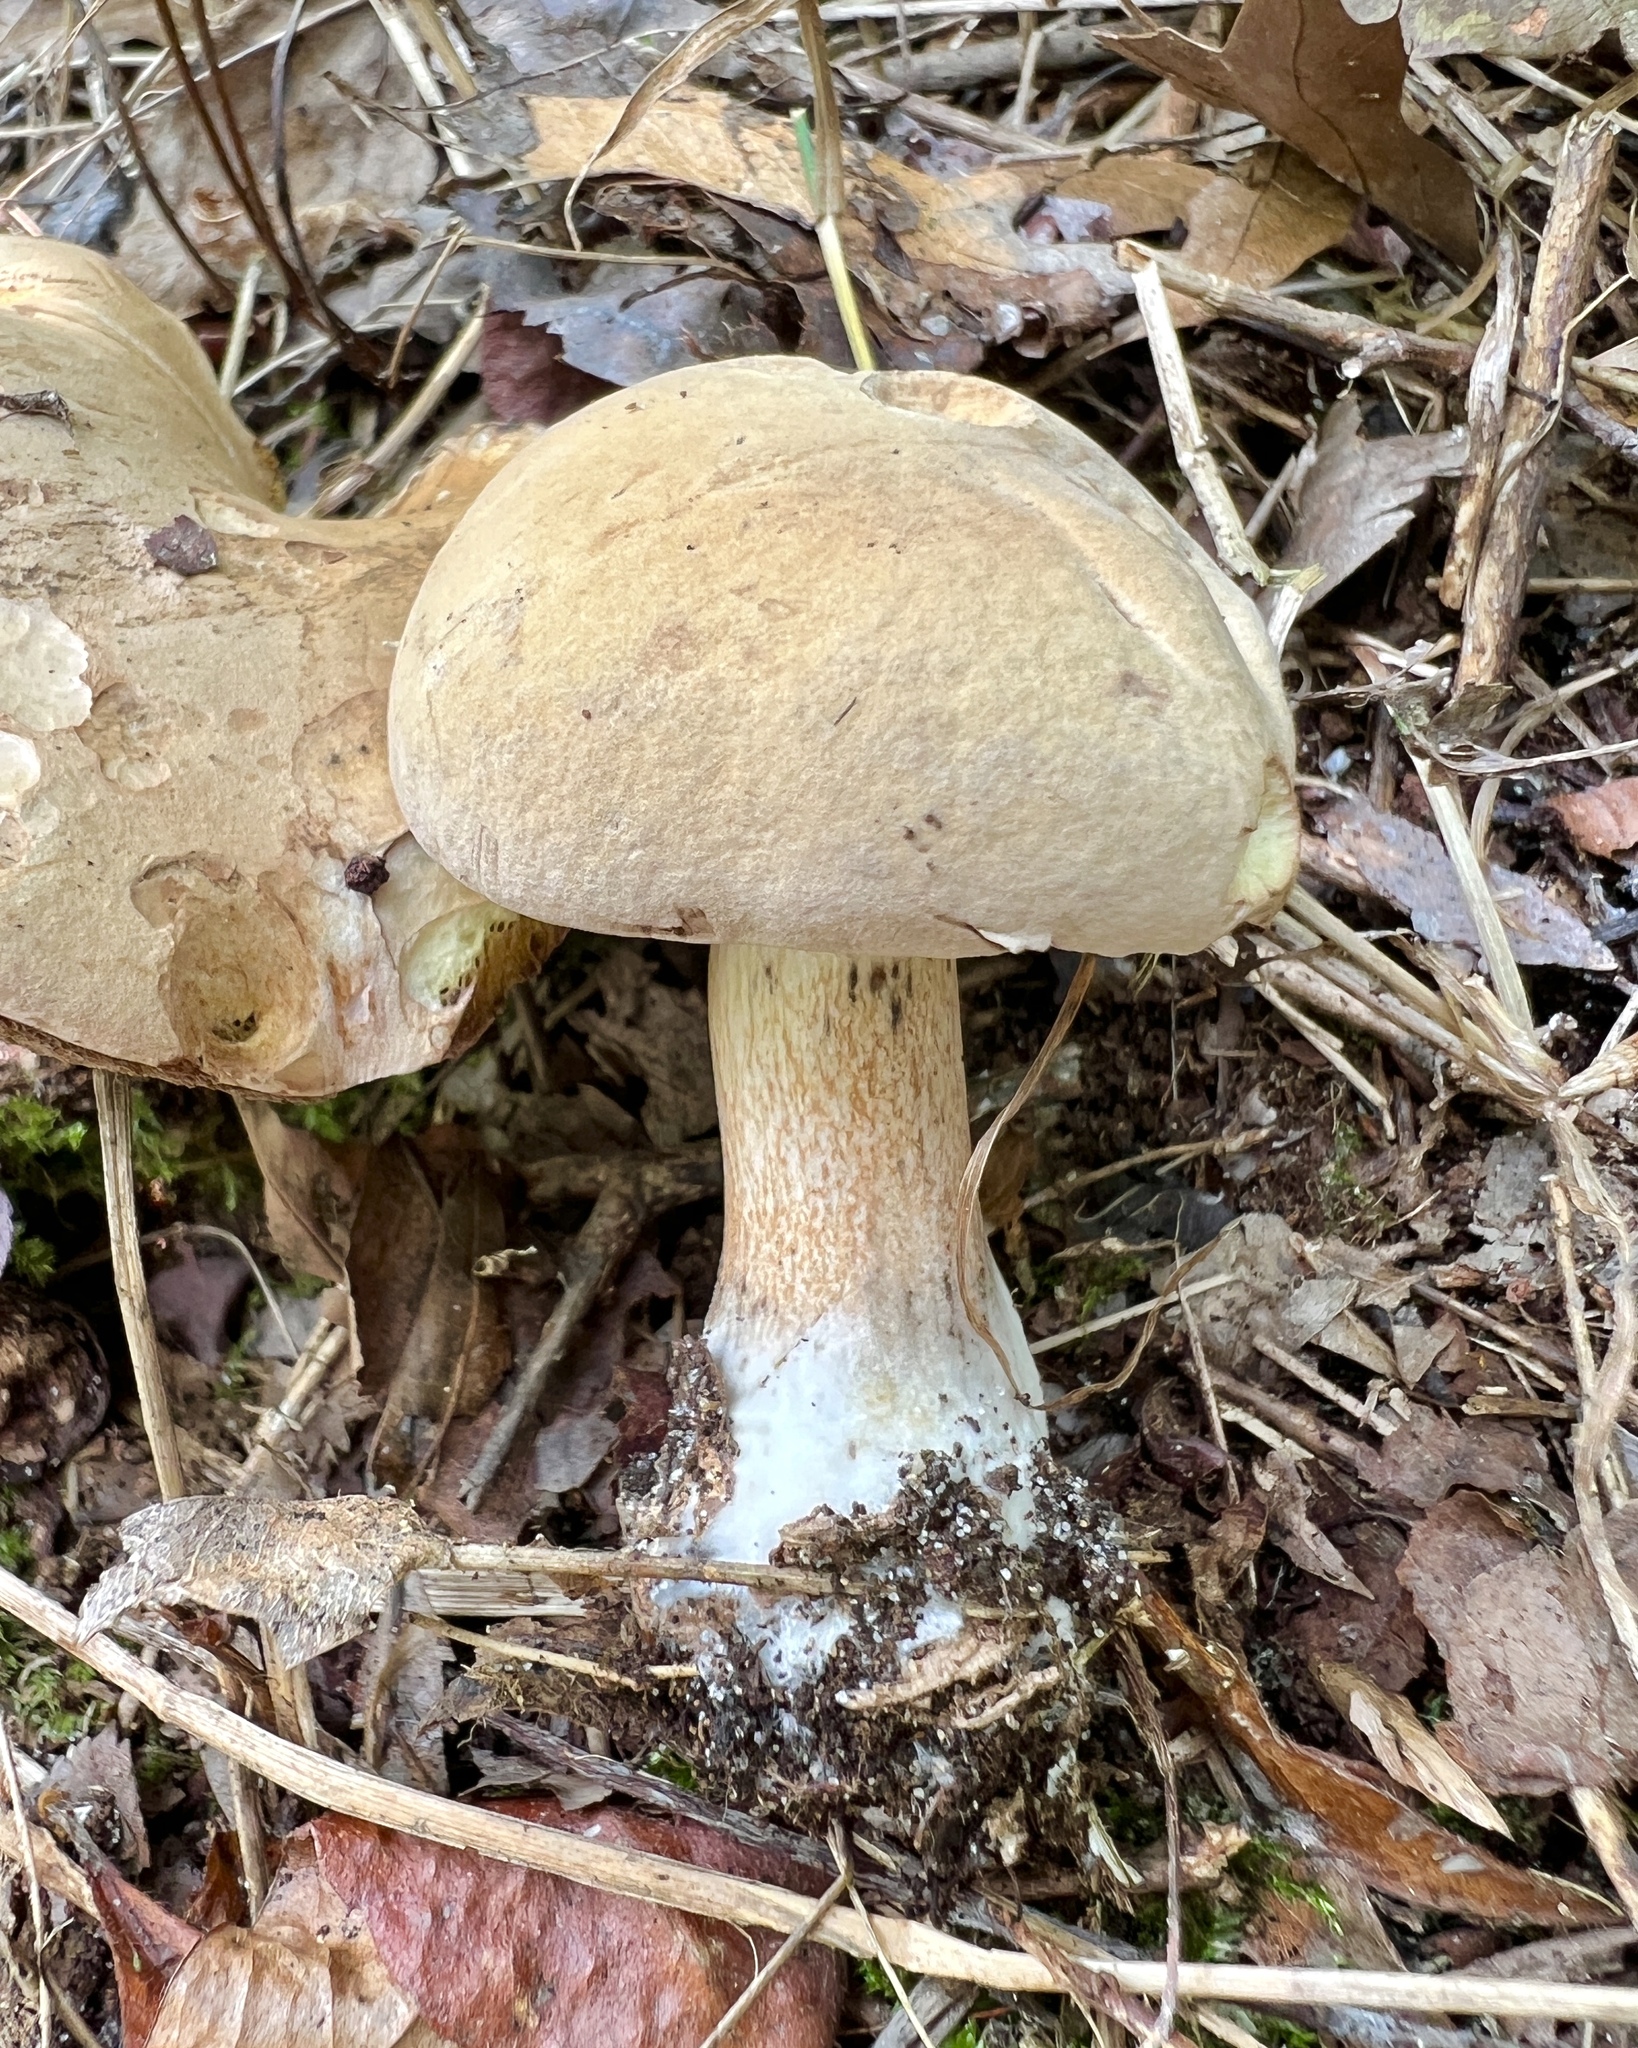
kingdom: Fungi
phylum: Basidiomycota
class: Agaricomycetes
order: Boletales
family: Boletaceae
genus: Imleria
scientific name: Imleria pallida
